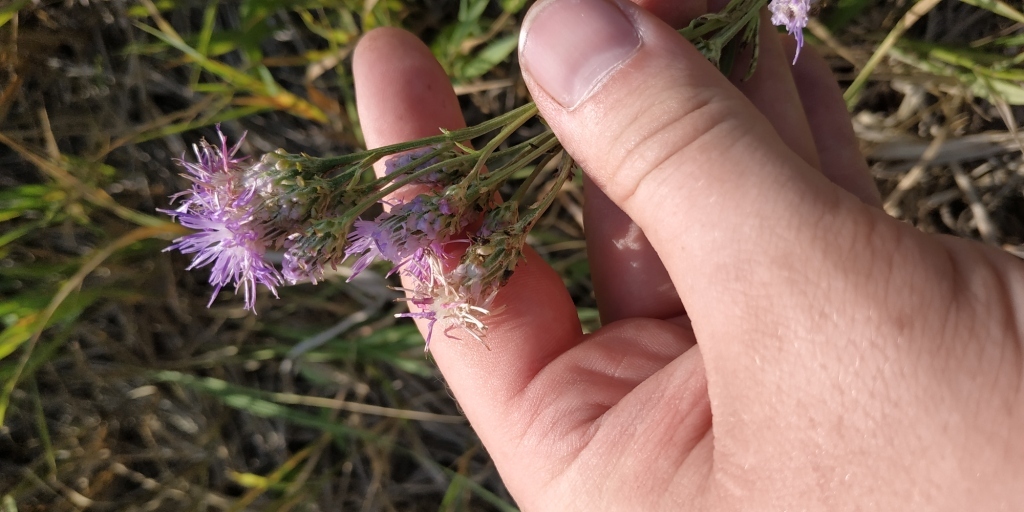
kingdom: Plantae
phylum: Tracheophyta
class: Magnoliopsida
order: Asterales
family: Asteraceae
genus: Saussurea
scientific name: Saussurea amara
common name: Alberta sawwort
